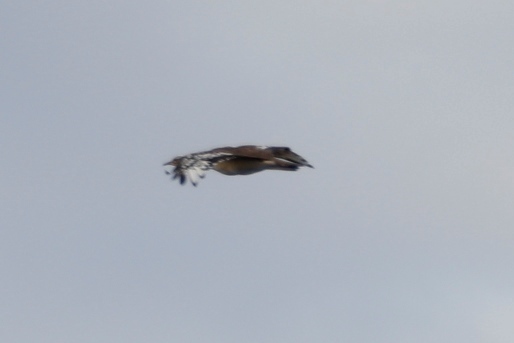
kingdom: Animalia
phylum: Chordata
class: Aves
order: Otidiformes
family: Otididae
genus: Neotis
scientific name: Neotis denhami
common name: Denham's bustard
